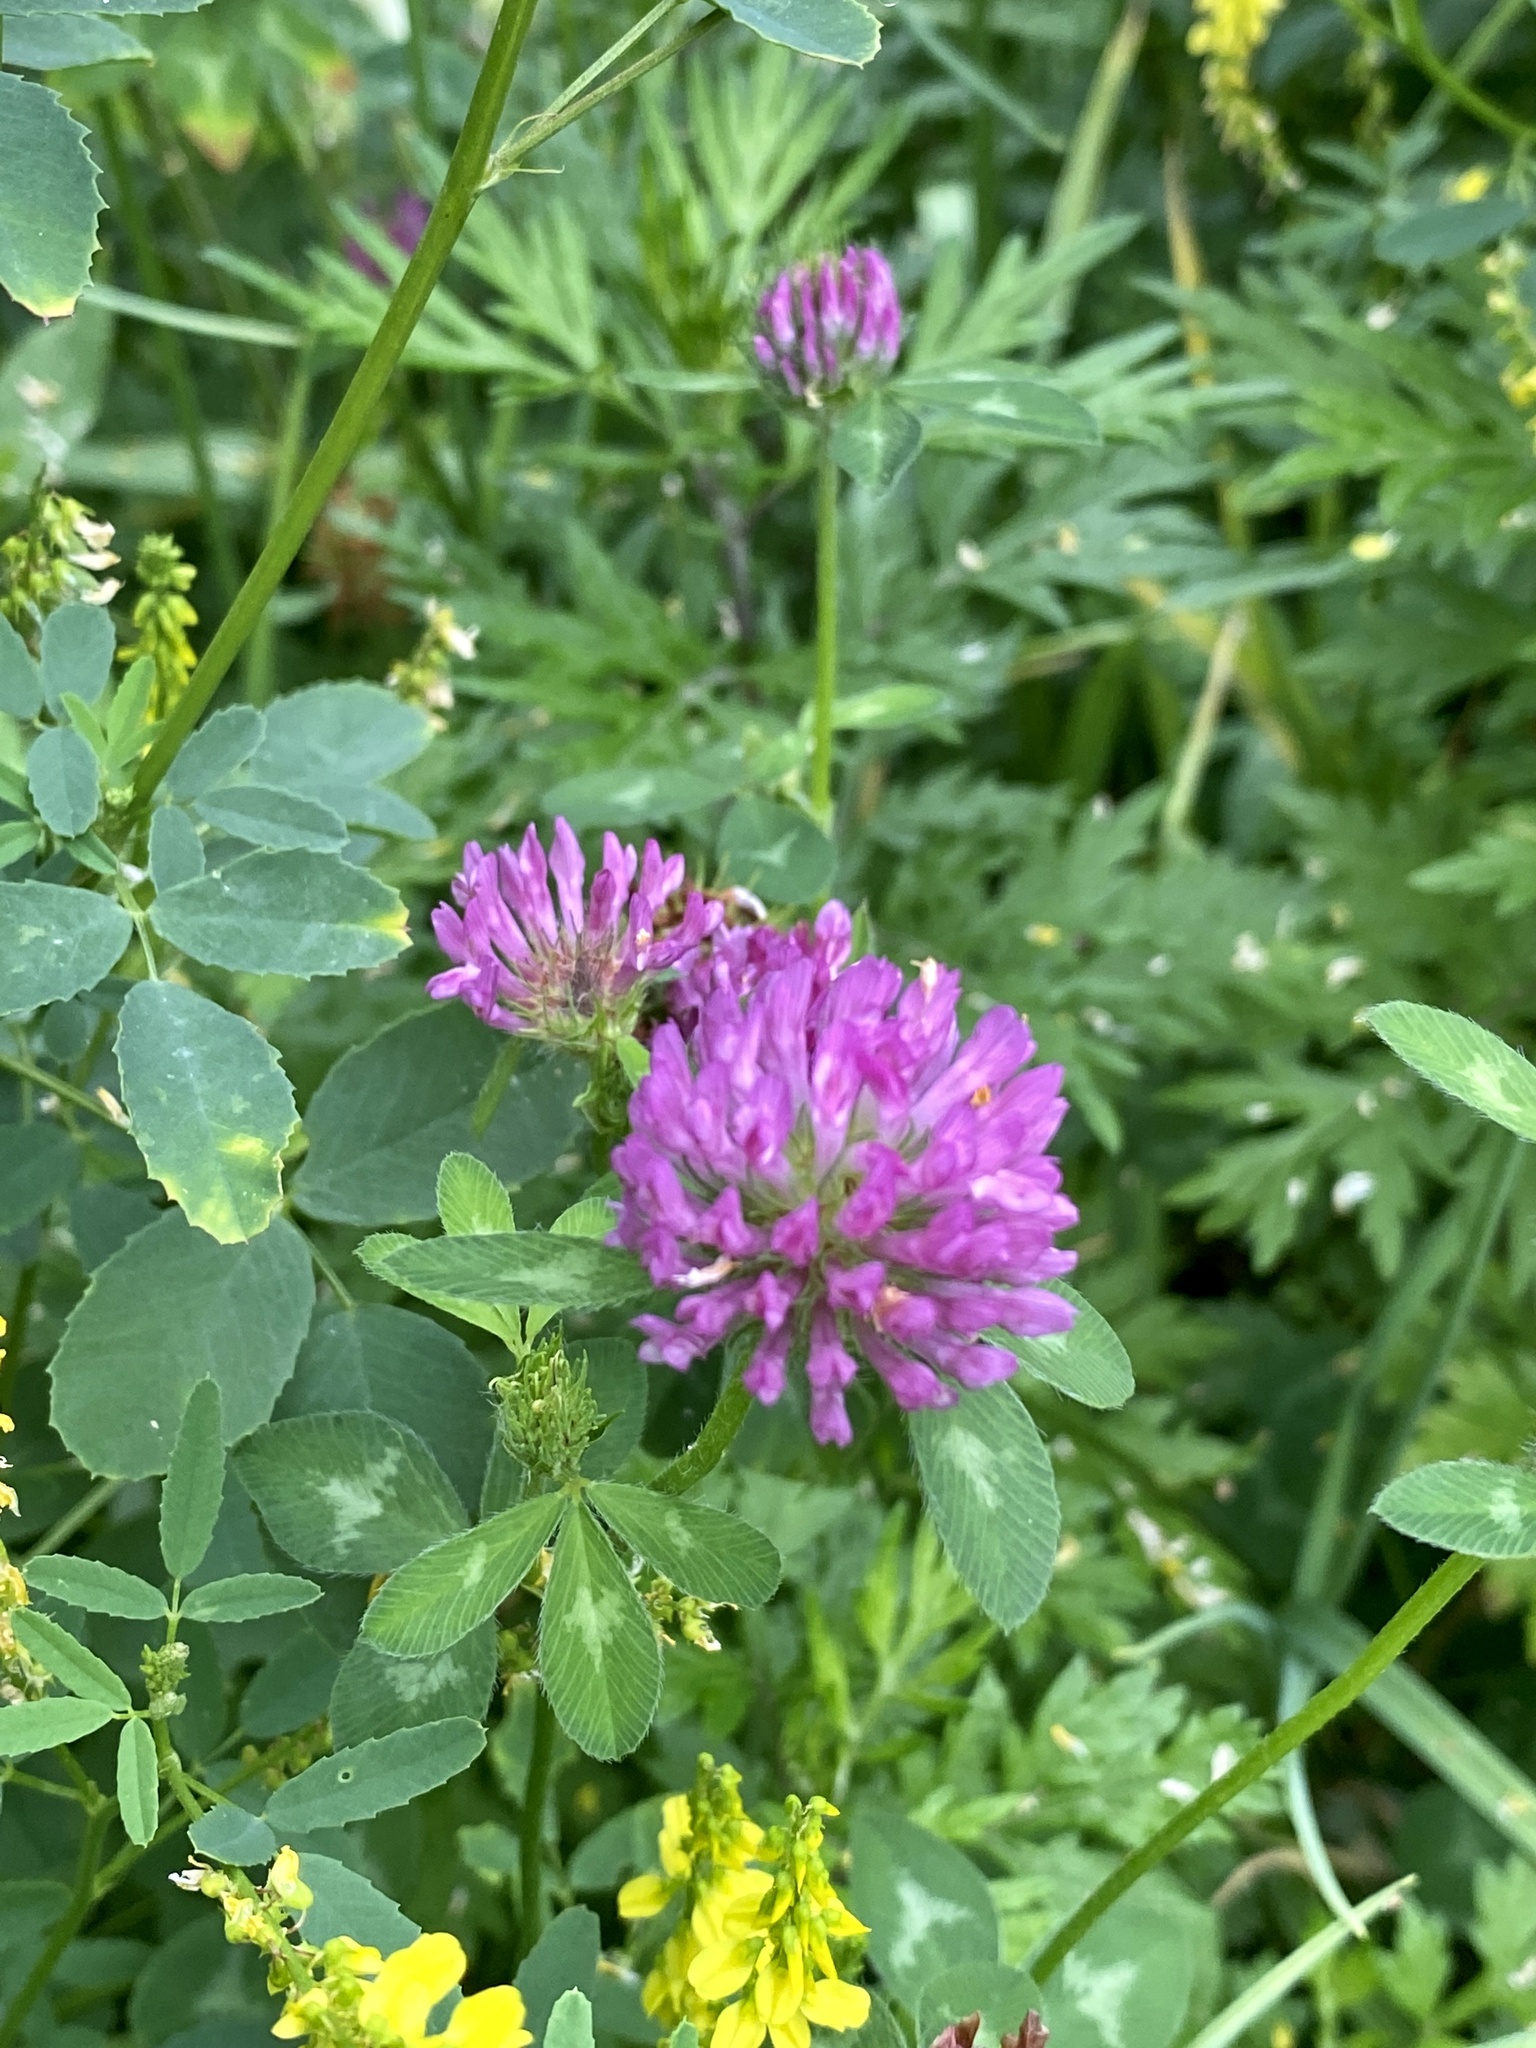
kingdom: Plantae
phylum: Tracheophyta
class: Magnoliopsida
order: Fabales
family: Fabaceae
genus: Trifolium
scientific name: Trifolium pratense
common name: Red clover
